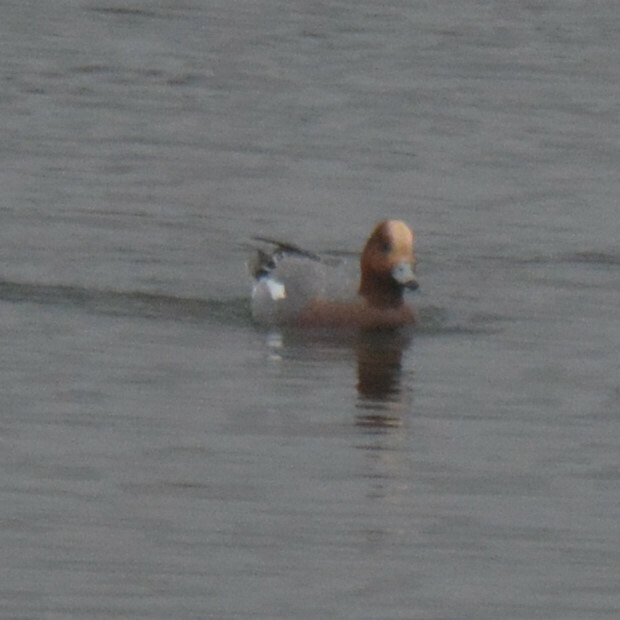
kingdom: Animalia
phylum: Chordata
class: Aves
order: Anseriformes
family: Anatidae
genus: Mareca
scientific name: Mareca penelope
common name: Eurasian wigeon
